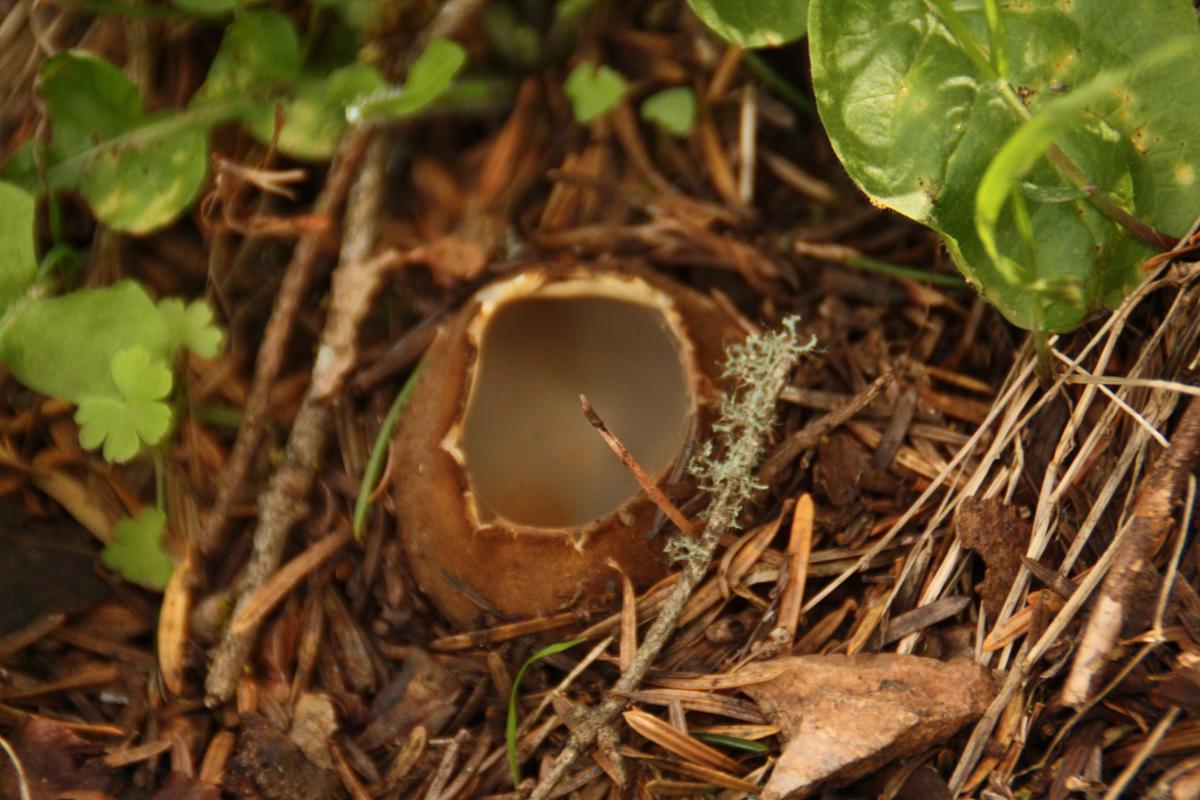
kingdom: Fungi
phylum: Ascomycota
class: Pezizomycetes
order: Pezizales
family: Pyronemataceae
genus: Geopora
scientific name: Geopora sumneriana
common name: Cedar cup
